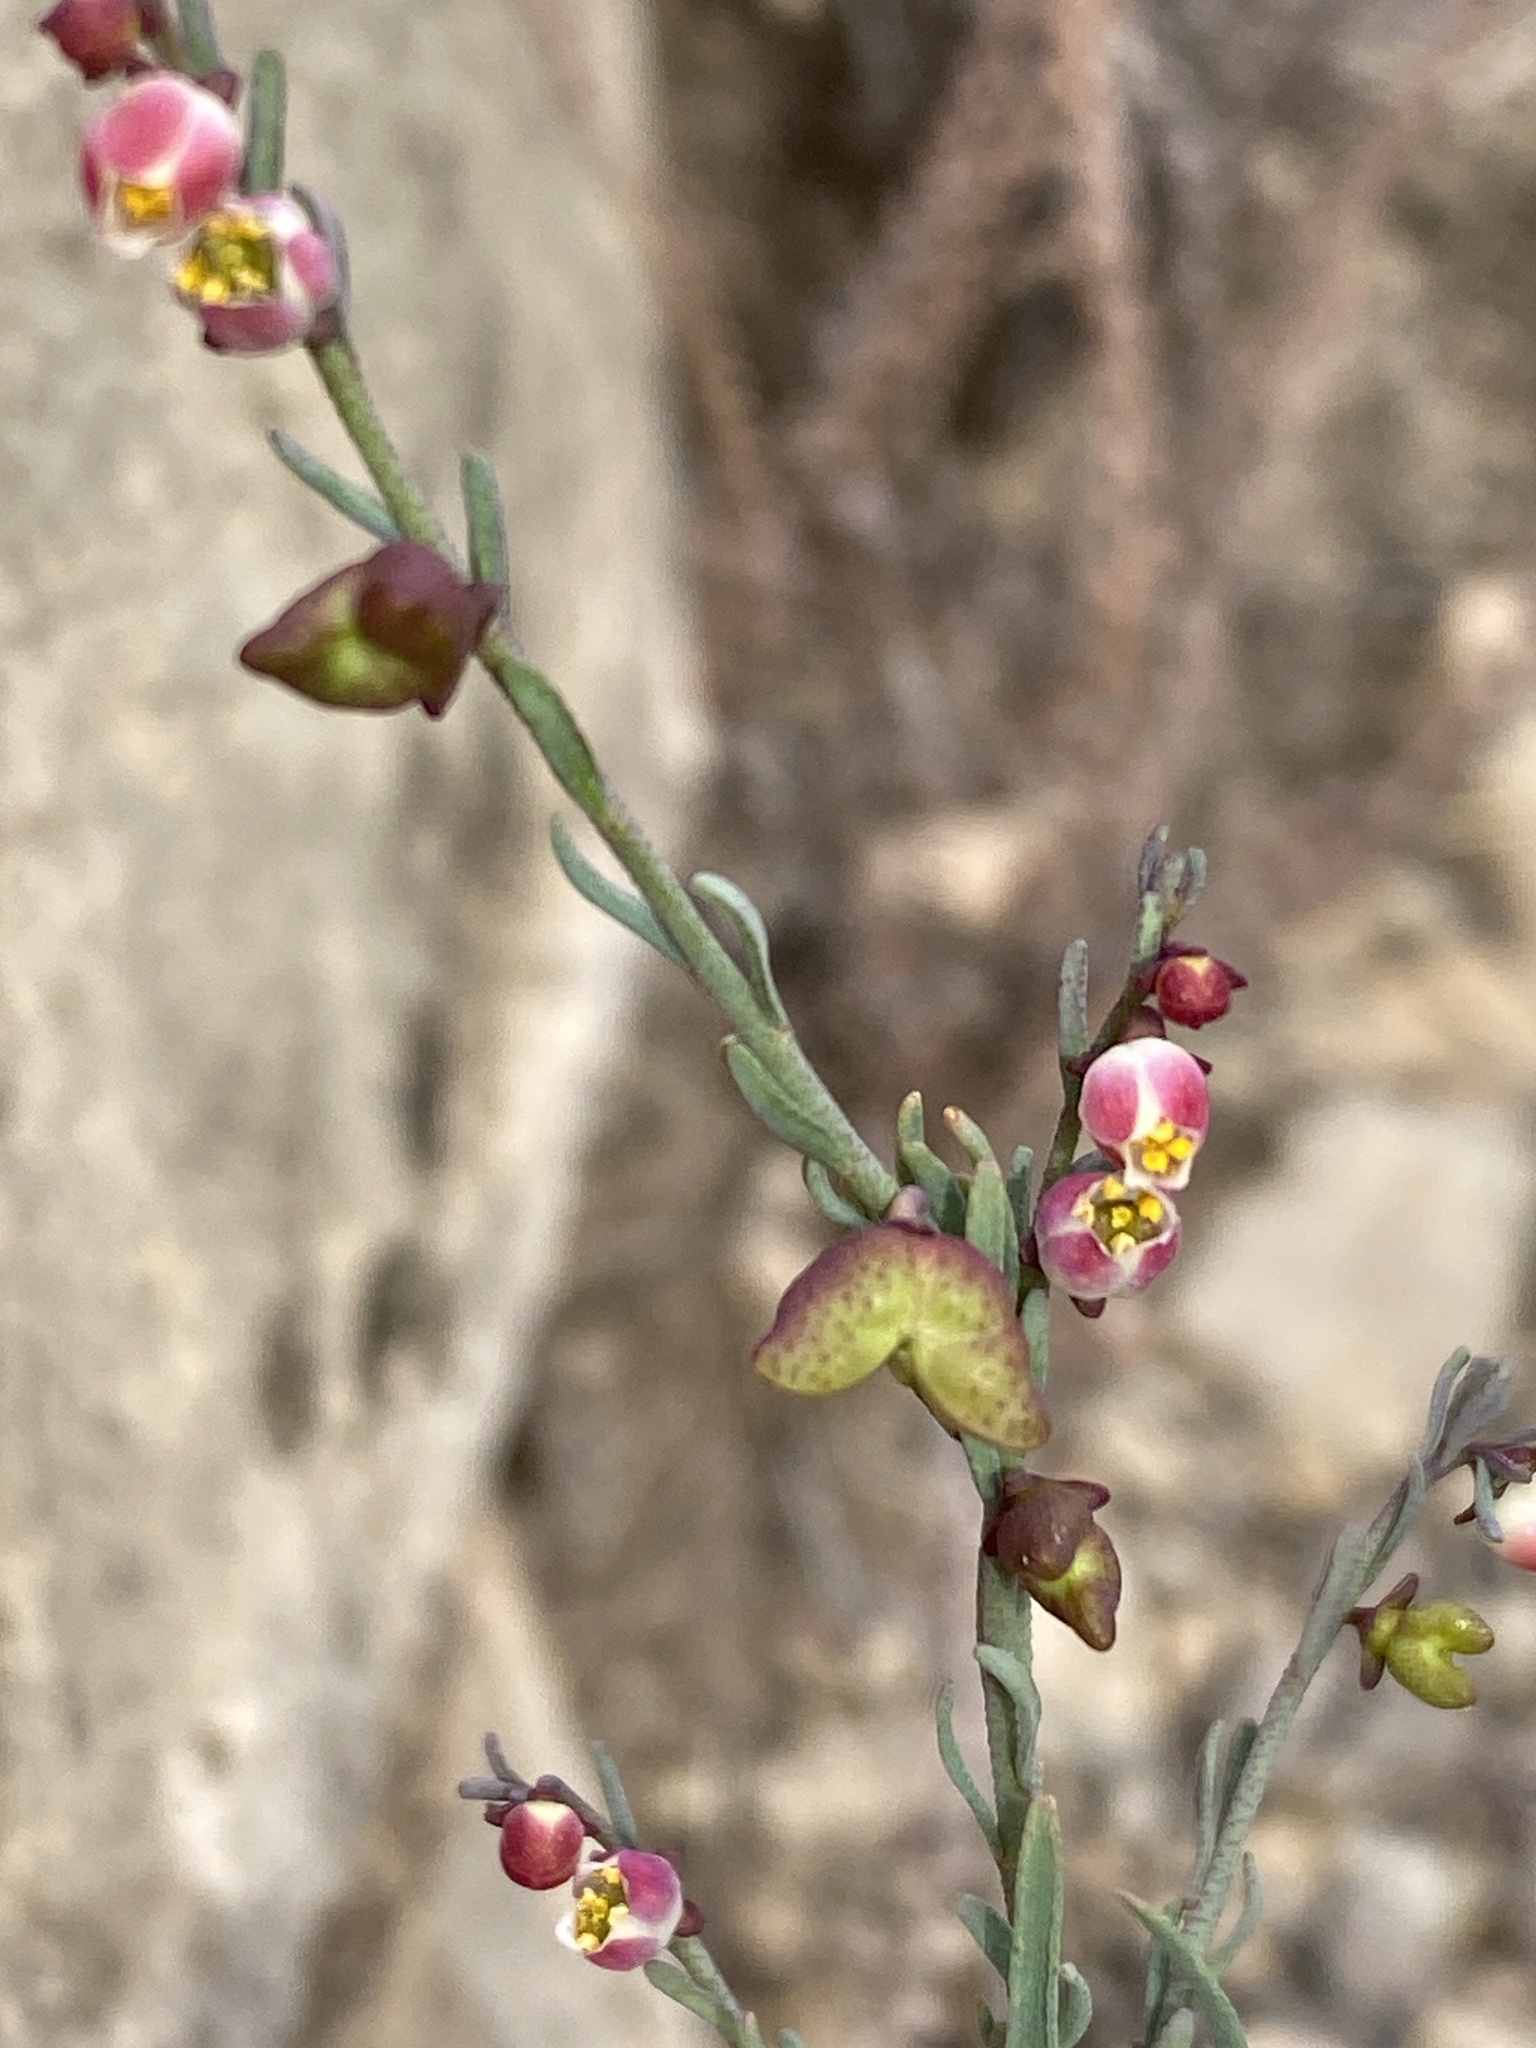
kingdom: Plantae
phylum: Tracheophyta
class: Magnoliopsida
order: Sapindales
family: Rutaceae
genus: Thamnosma
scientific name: Thamnosma texana
